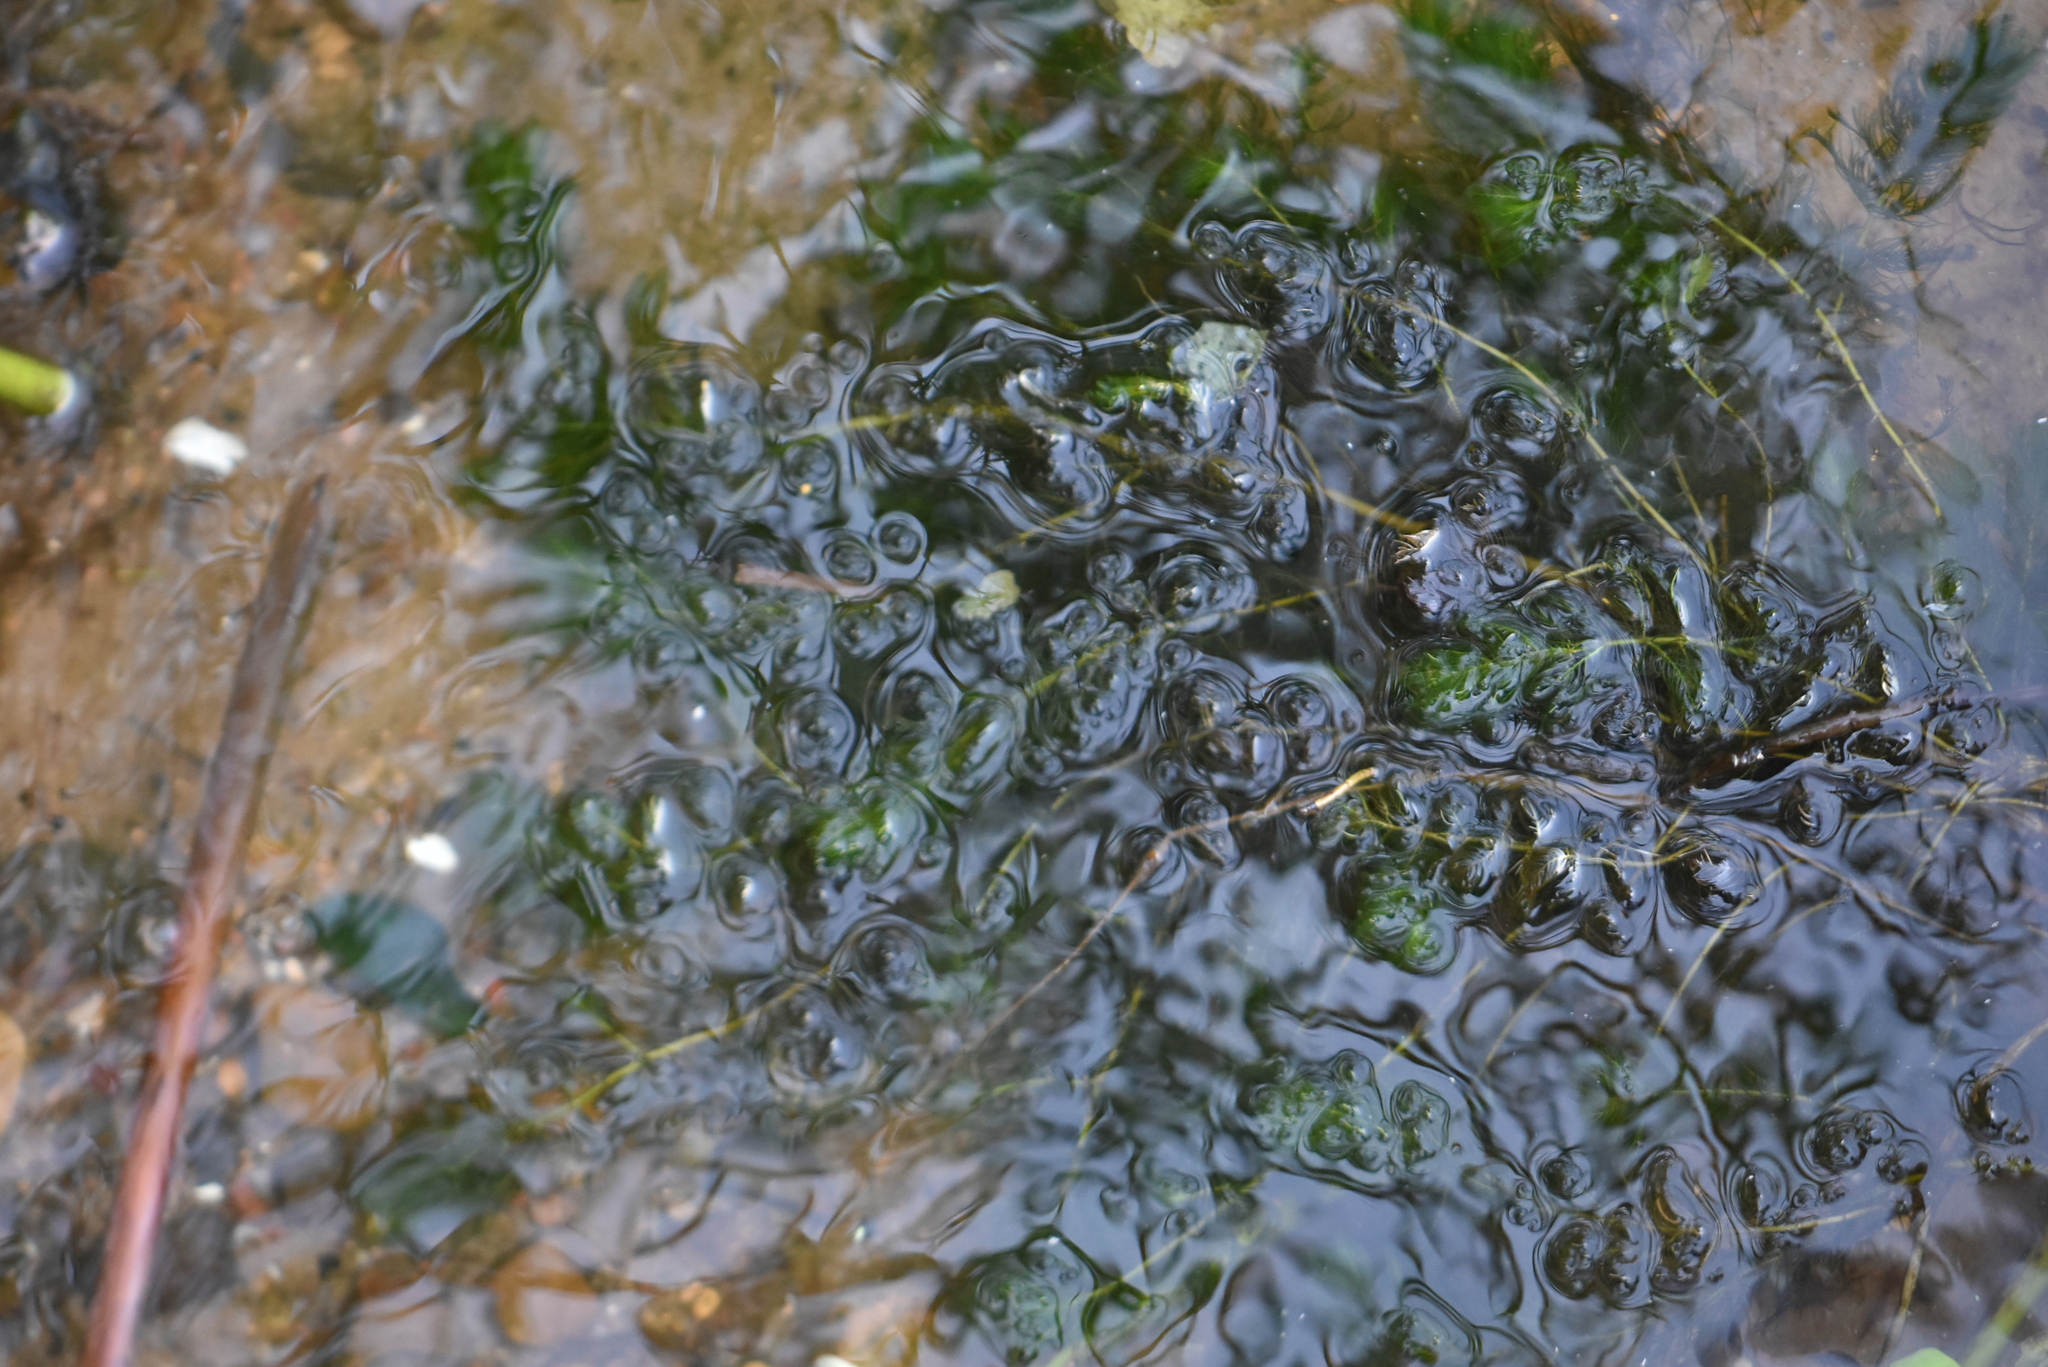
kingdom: Plantae
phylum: Tracheophyta
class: Magnoliopsida
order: Ceratophyllales
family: Ceratophyllaceae
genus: Ceratophyllum
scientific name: Ceratophyllum demersum
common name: Rigid hornwort
